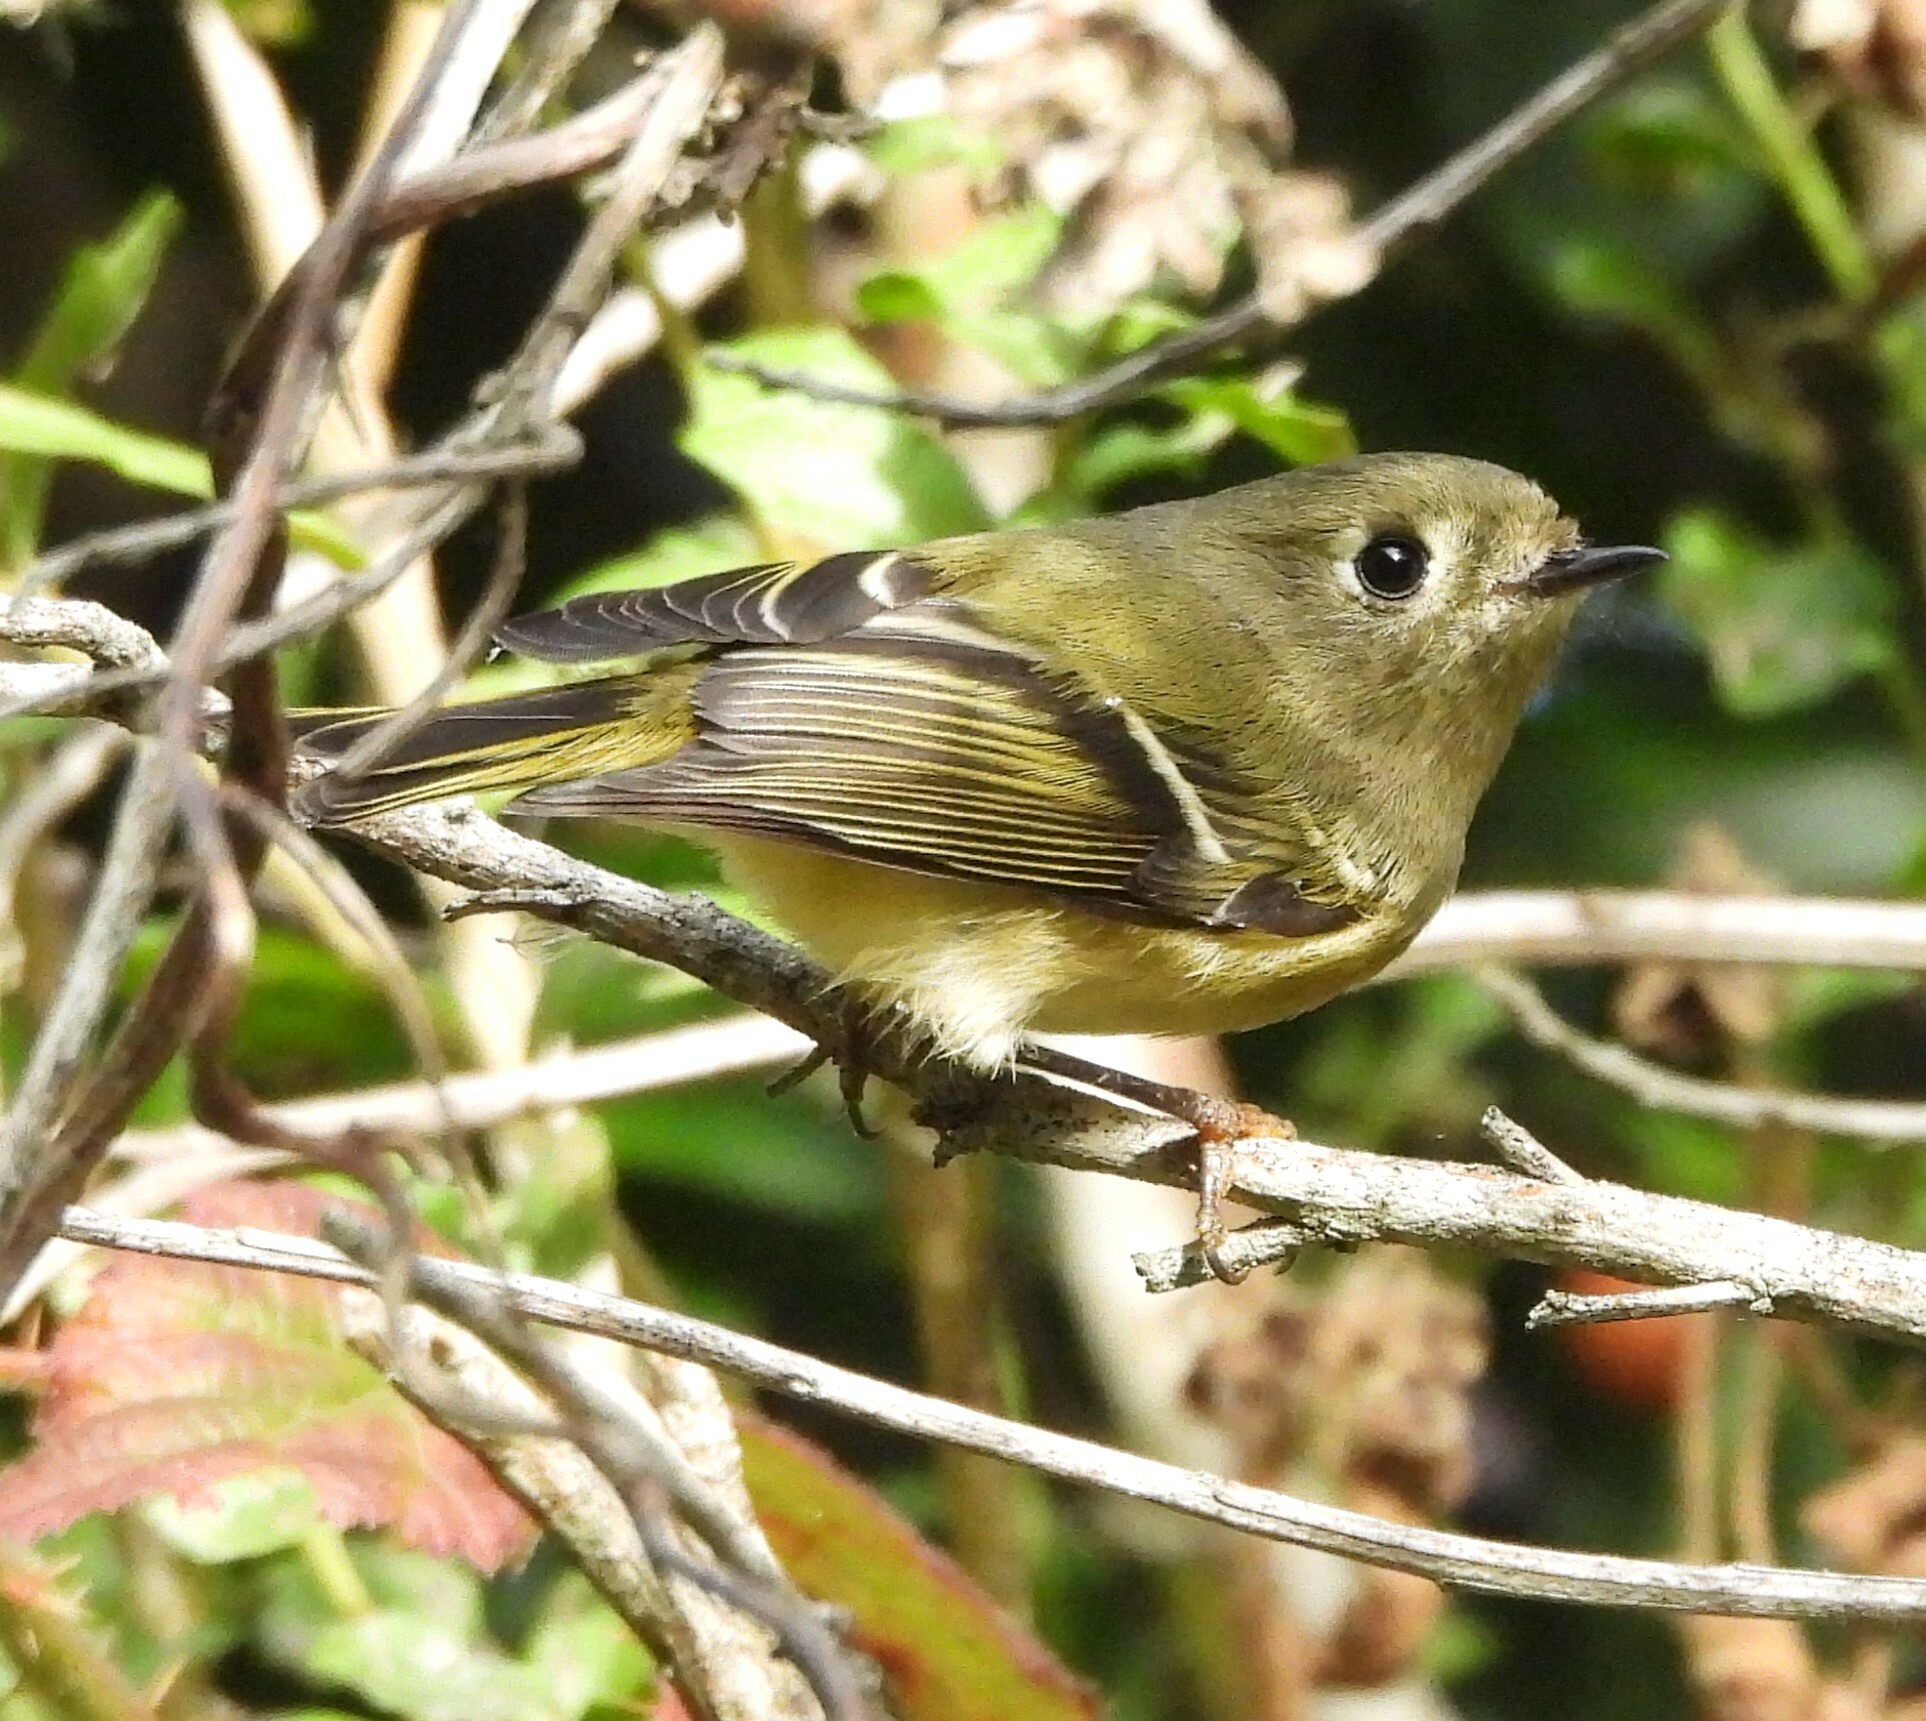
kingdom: Animalia
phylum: Chordata
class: Aves
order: Passeriformes
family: Regulidae
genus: Regulus
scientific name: Regulus calendula
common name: Ruby-crowned kinglet
